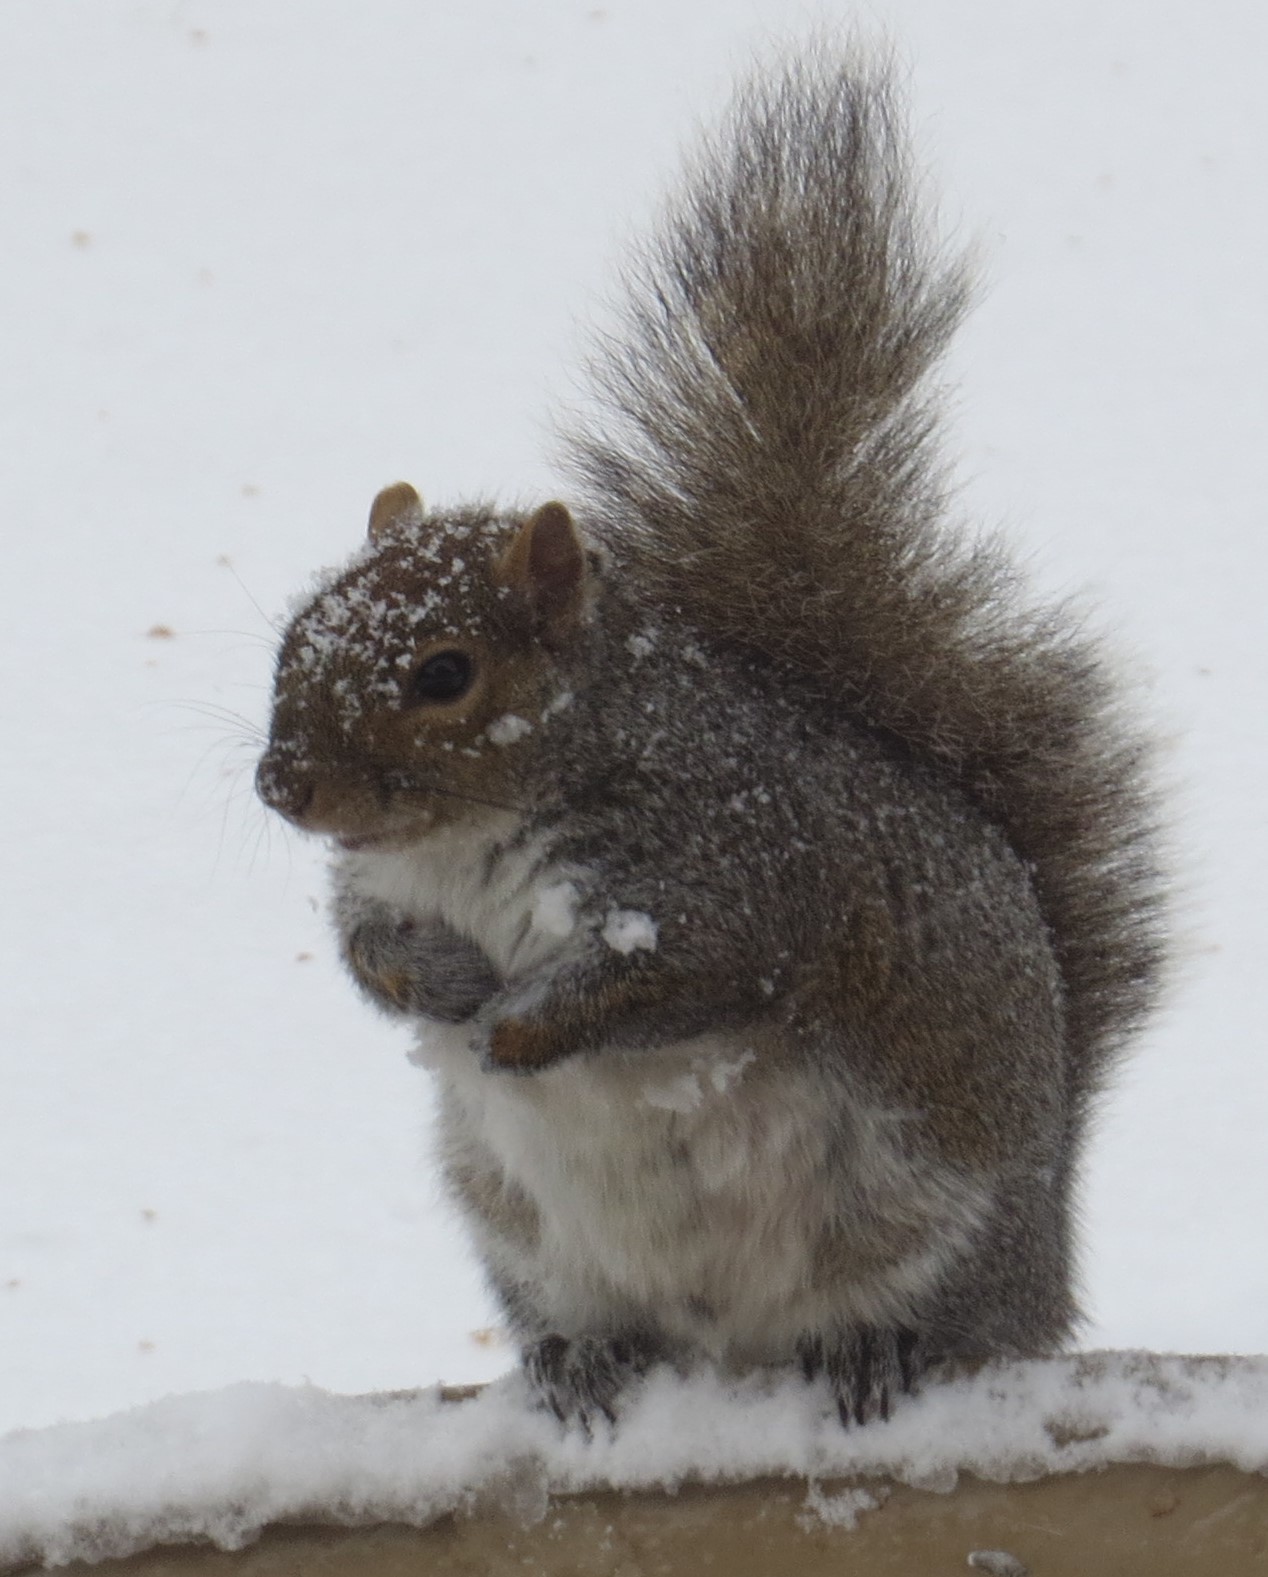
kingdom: Animalia
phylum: Chordata
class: Mammalia
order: Rodentia
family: Sciuridae
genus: Sciurus
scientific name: Sciurus carolinensis
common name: Eastern gray squirrel
